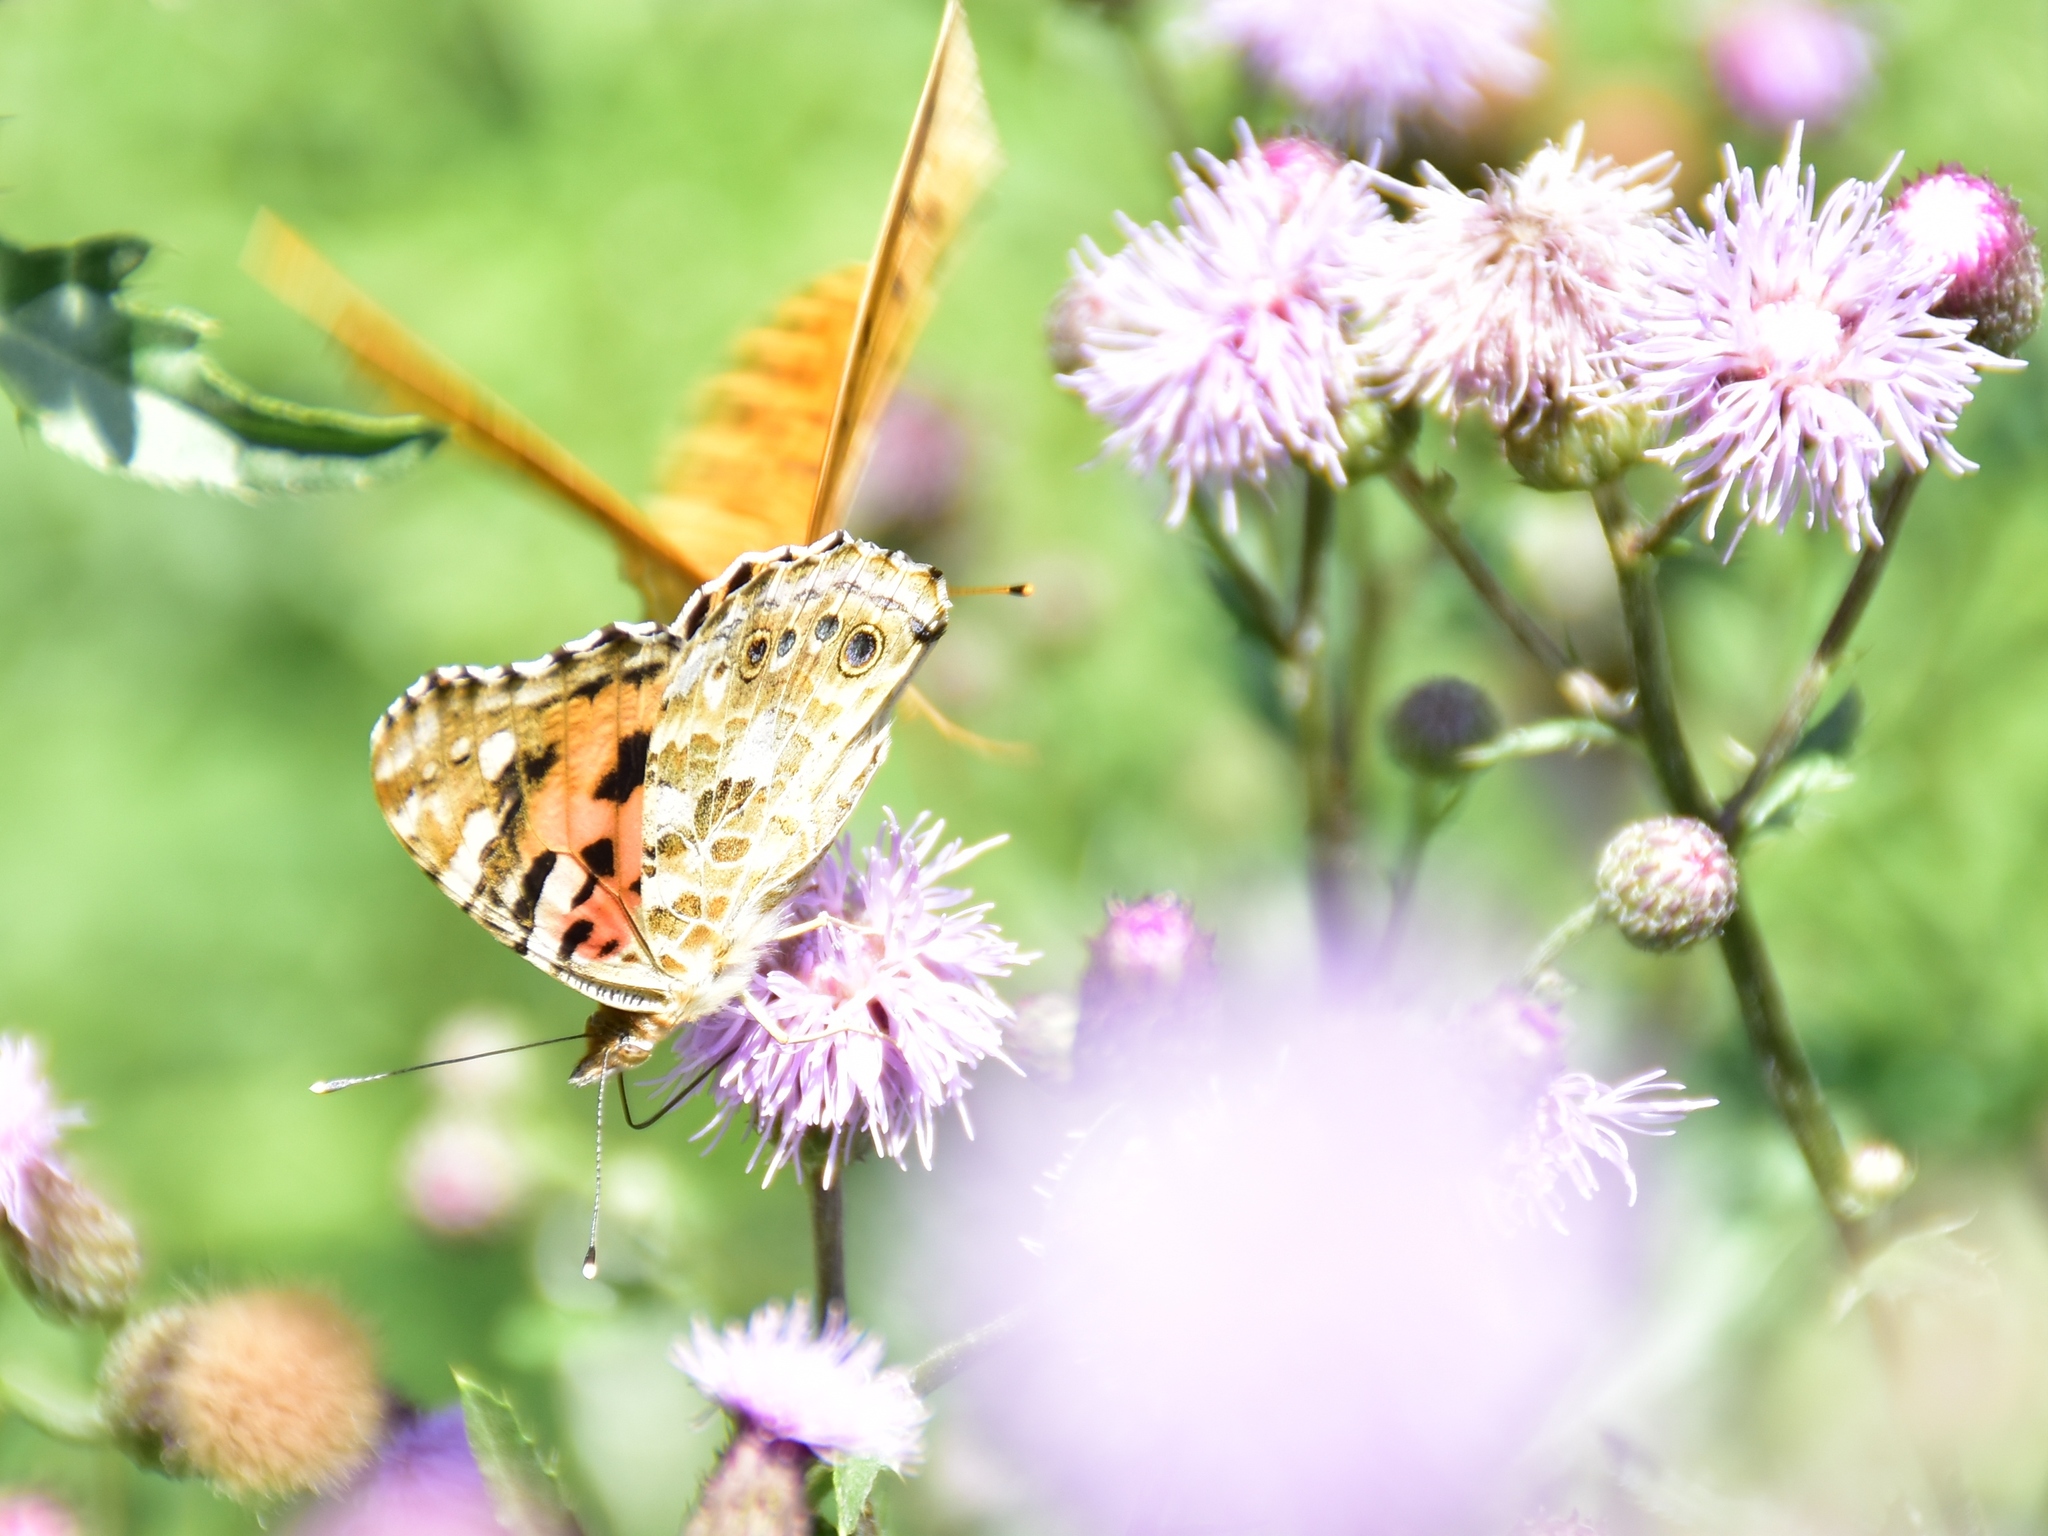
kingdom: Animalia
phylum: Arthropoda
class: Insecta
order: Lepidoptera
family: Nymphalidae
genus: Vanessa
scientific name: Vanessa cardui
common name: Painted lady
